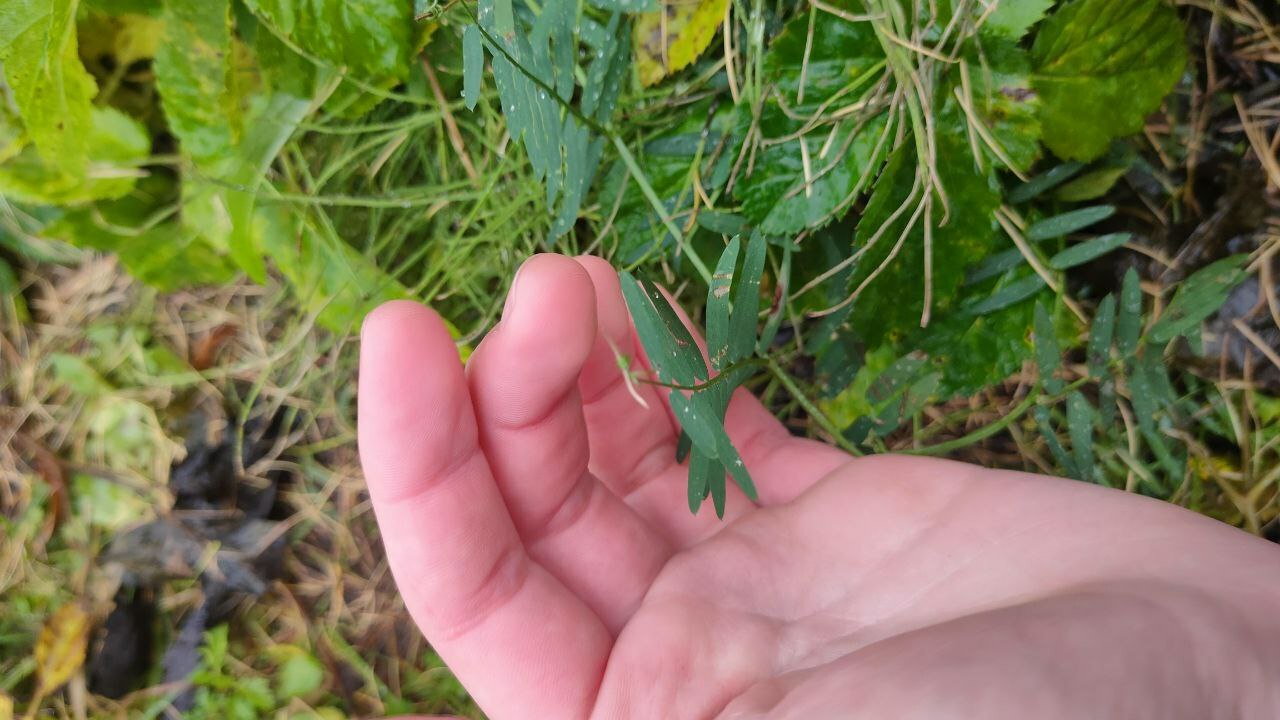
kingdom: Plantae
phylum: Tracheophyta
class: Magnoliopsida
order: Fabales
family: Fabaceae
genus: Vicia
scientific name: Vicia cracca
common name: Bird vetch
